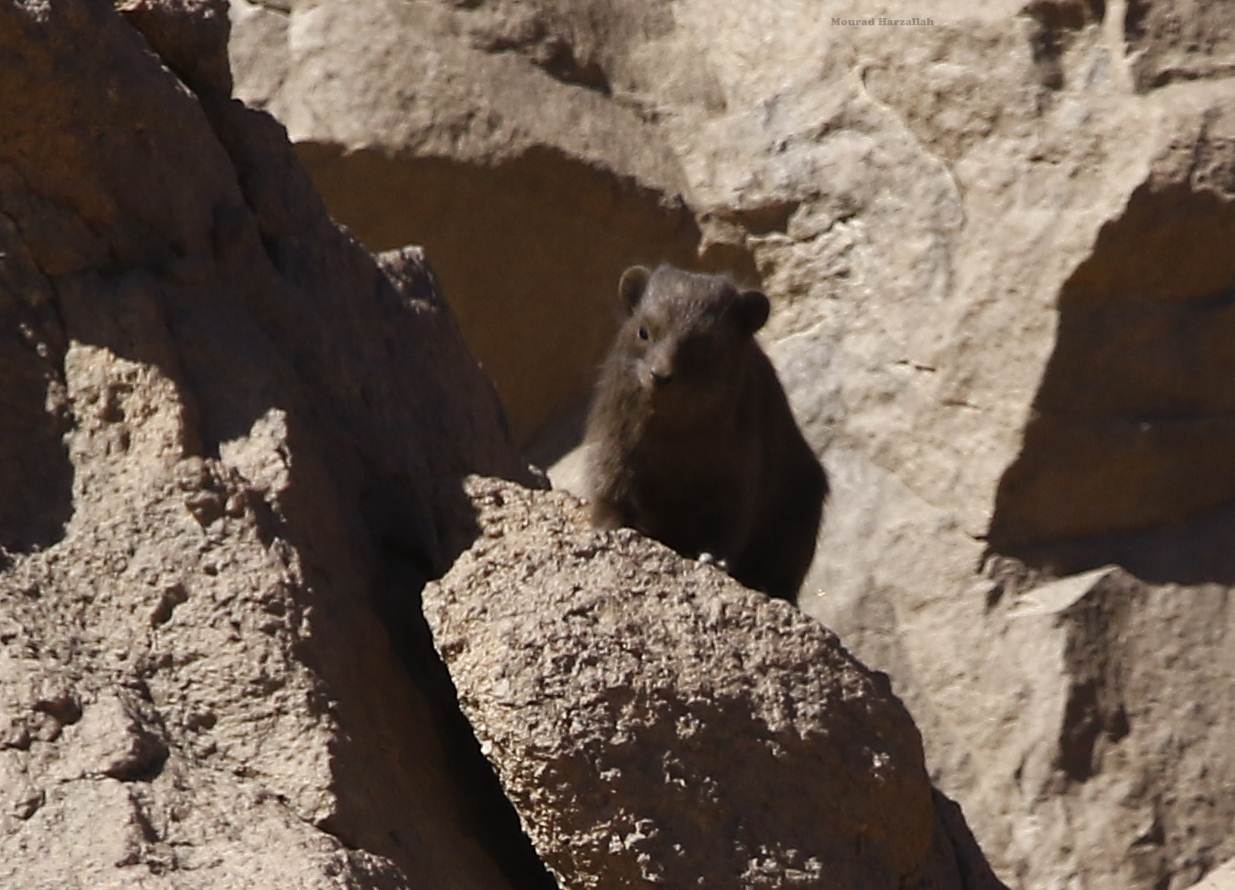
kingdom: Animalia
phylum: Chordata
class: Mammalia
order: Hyracoidea
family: Procaviidae
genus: Procavia
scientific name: Procavia capensis
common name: Rock hyrax
